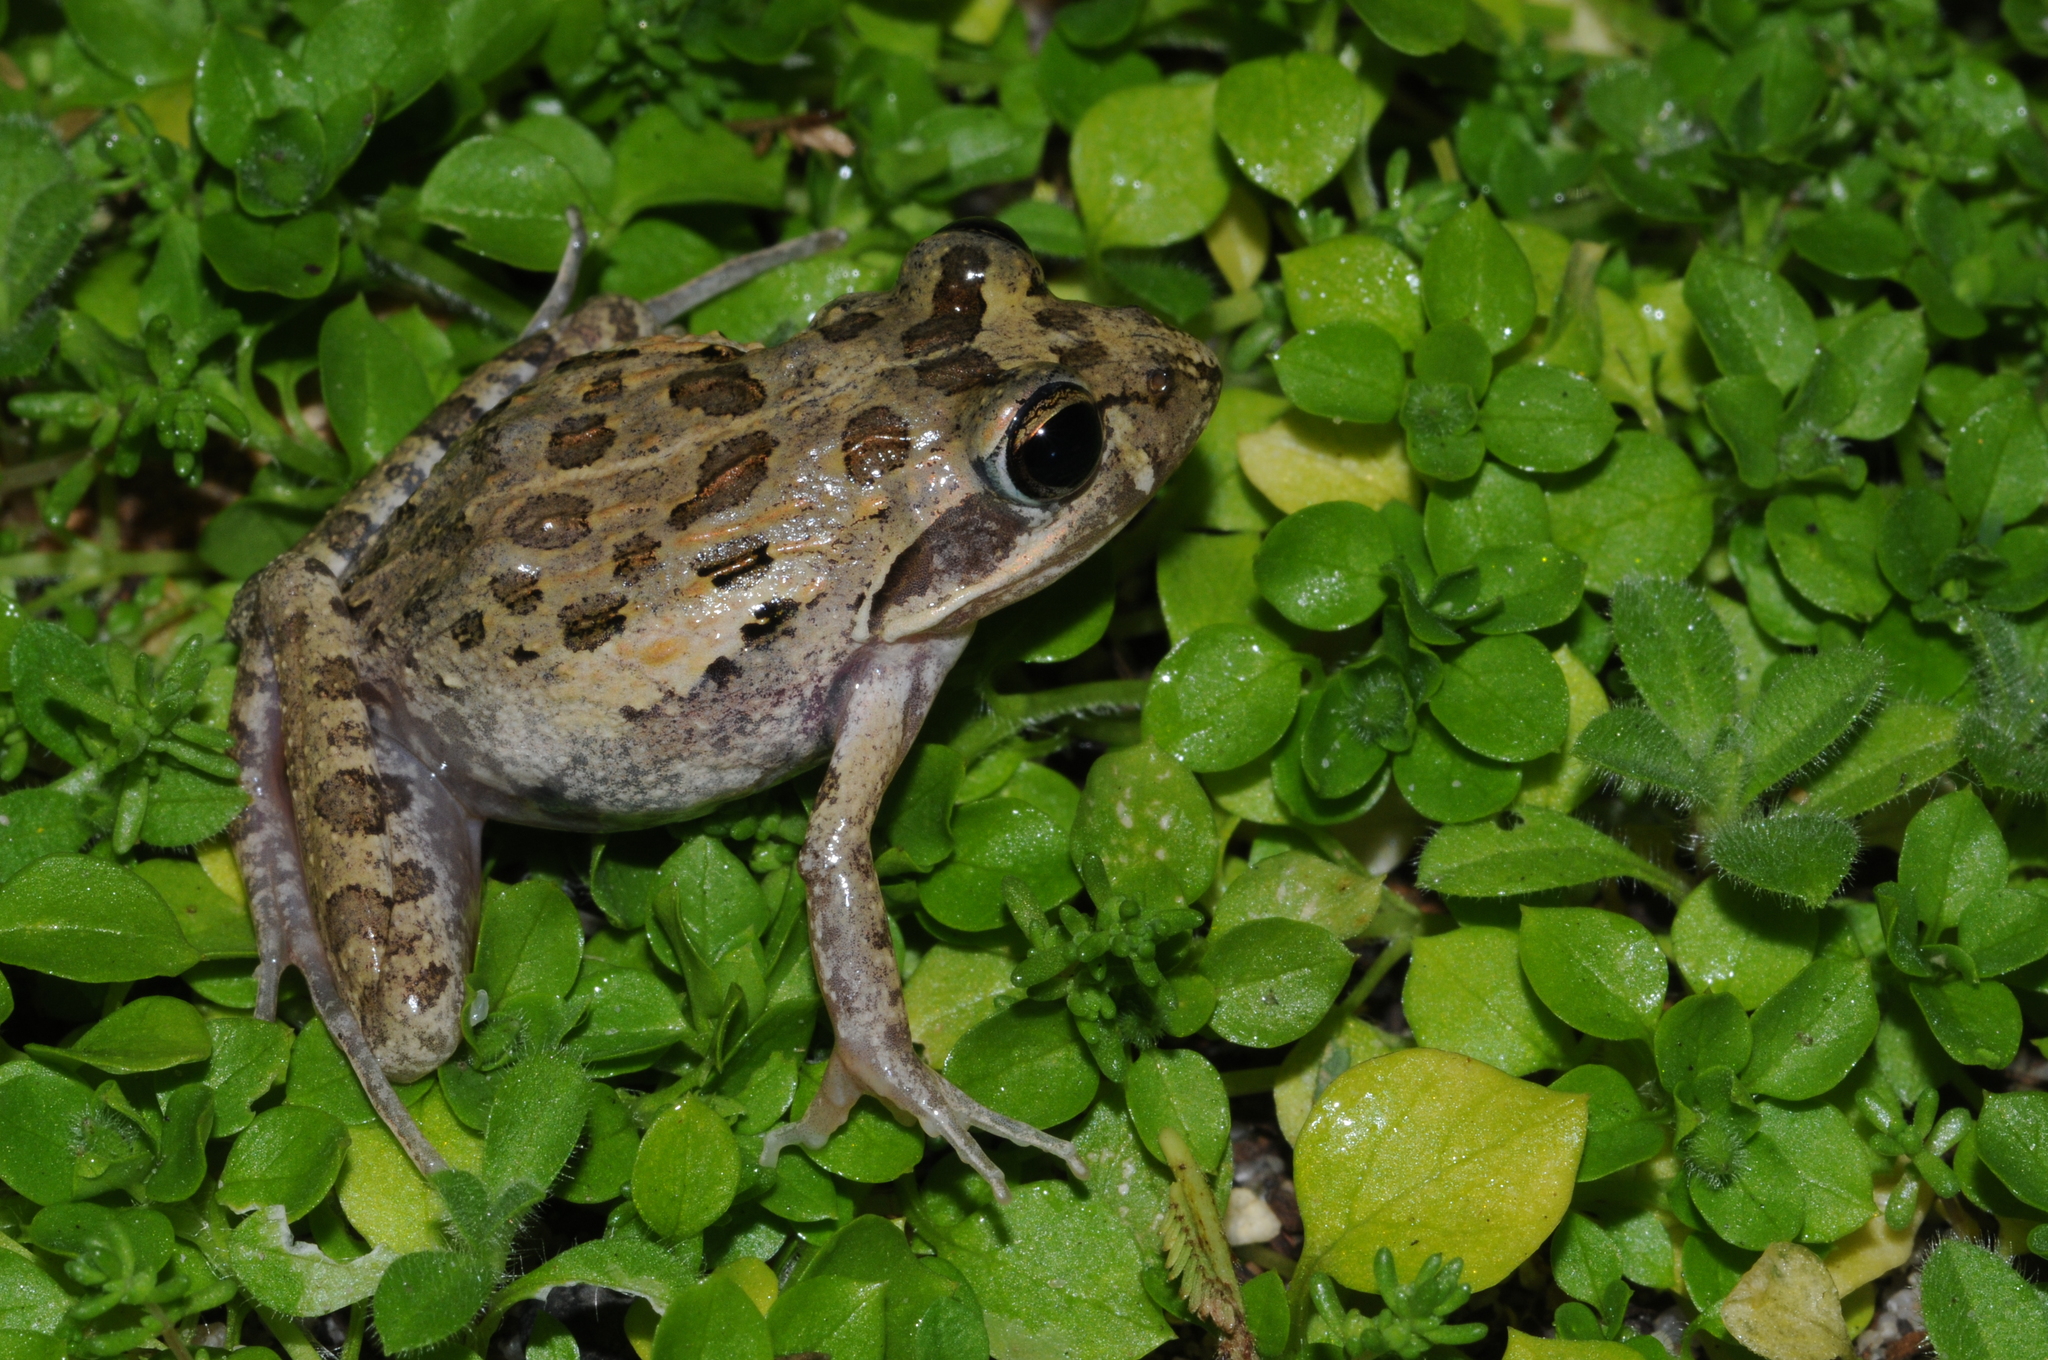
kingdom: Animalia
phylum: Chordata
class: Amphibia
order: Anura
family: Pyxicephalidae
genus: Strongylopus
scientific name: Strongylopus grayii
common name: Gray's stream frog
